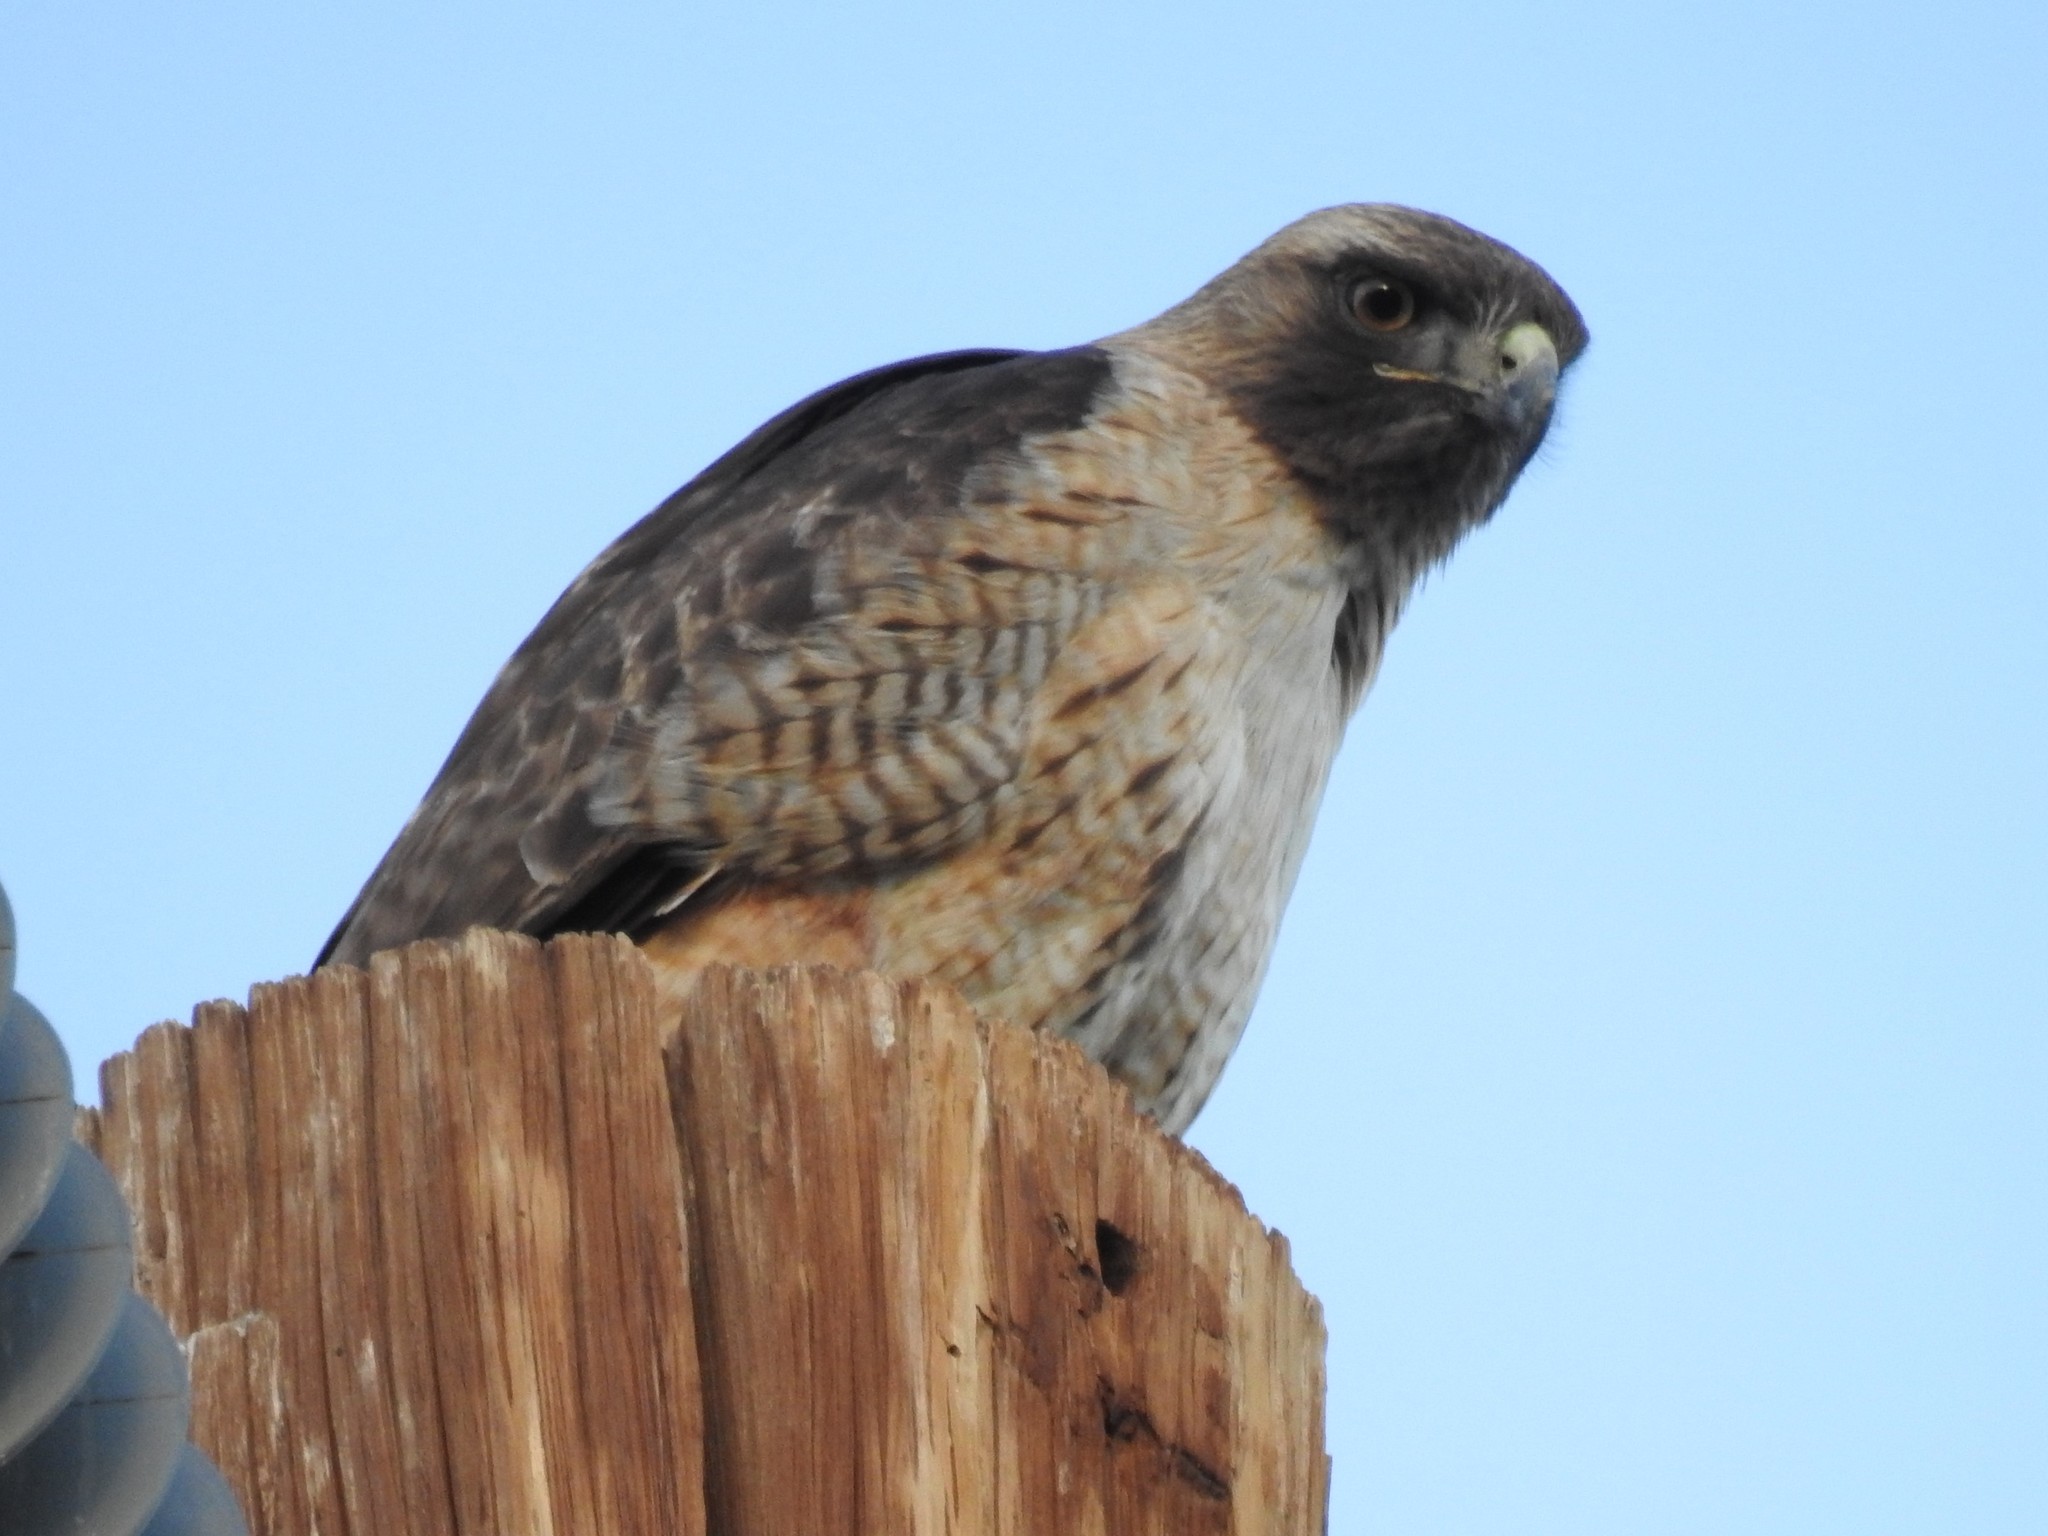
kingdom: Animalia
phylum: Chordata
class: Aves
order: Accipitriformes
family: Accipitridae
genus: Buteo
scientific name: Buteo jamaicensis
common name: Red-tailed hawk
